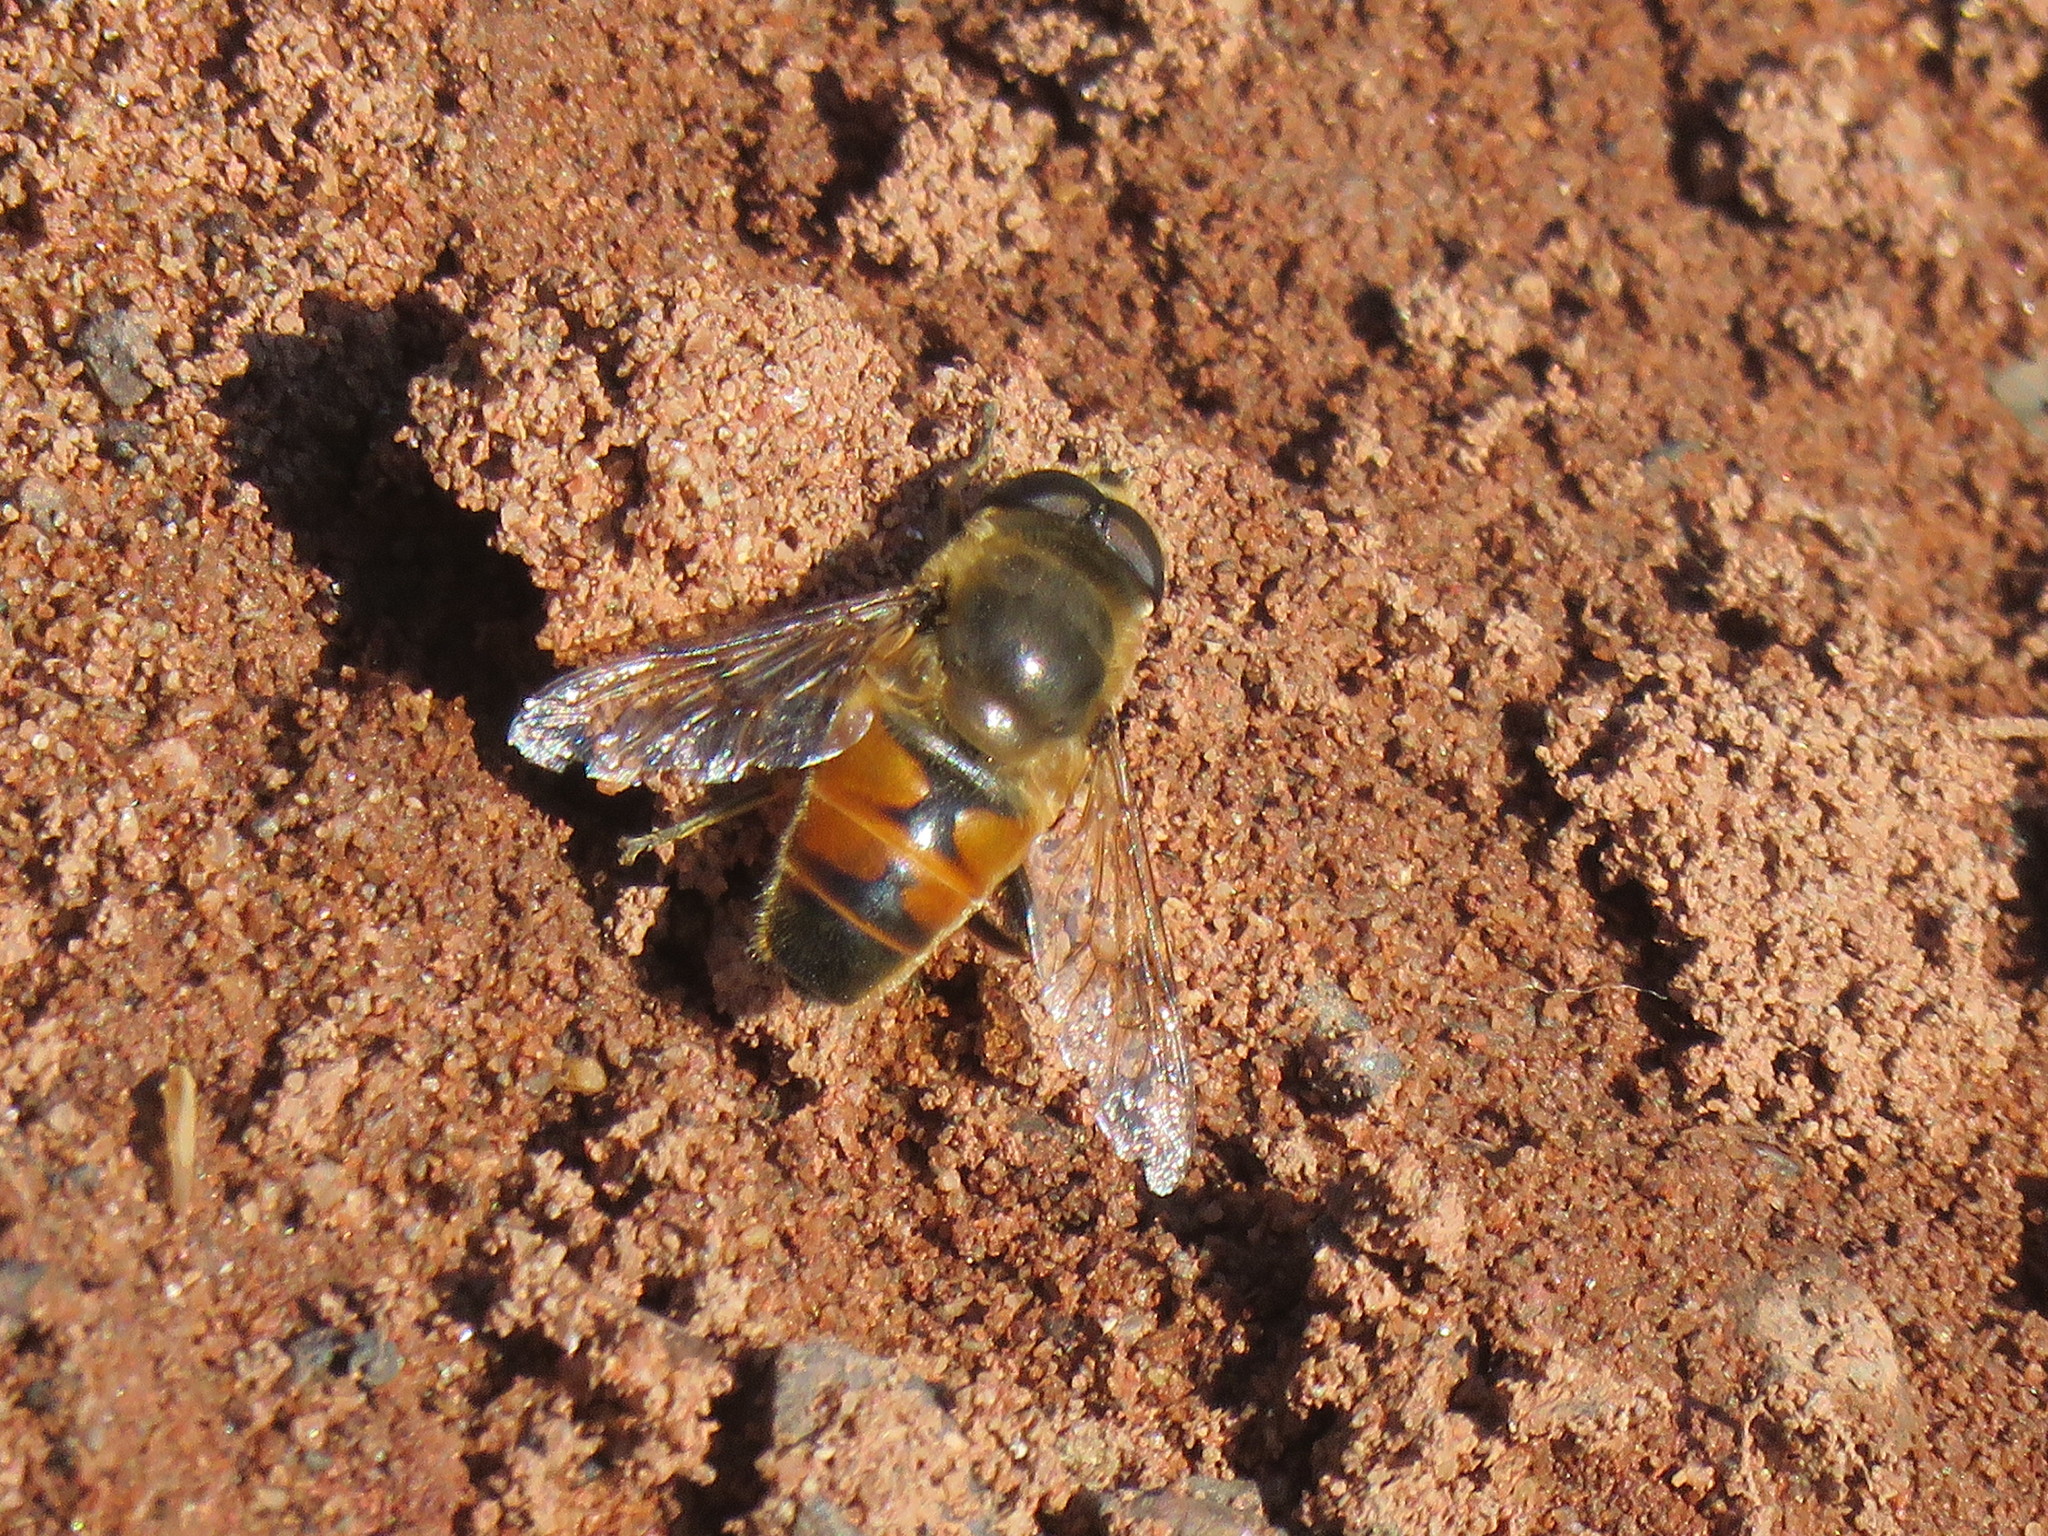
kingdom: Animalia
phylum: Arthropoda
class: Insecta
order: Diptera
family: Syrphidae
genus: Eristalis
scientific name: Eristalis tenax
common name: Drone fly
